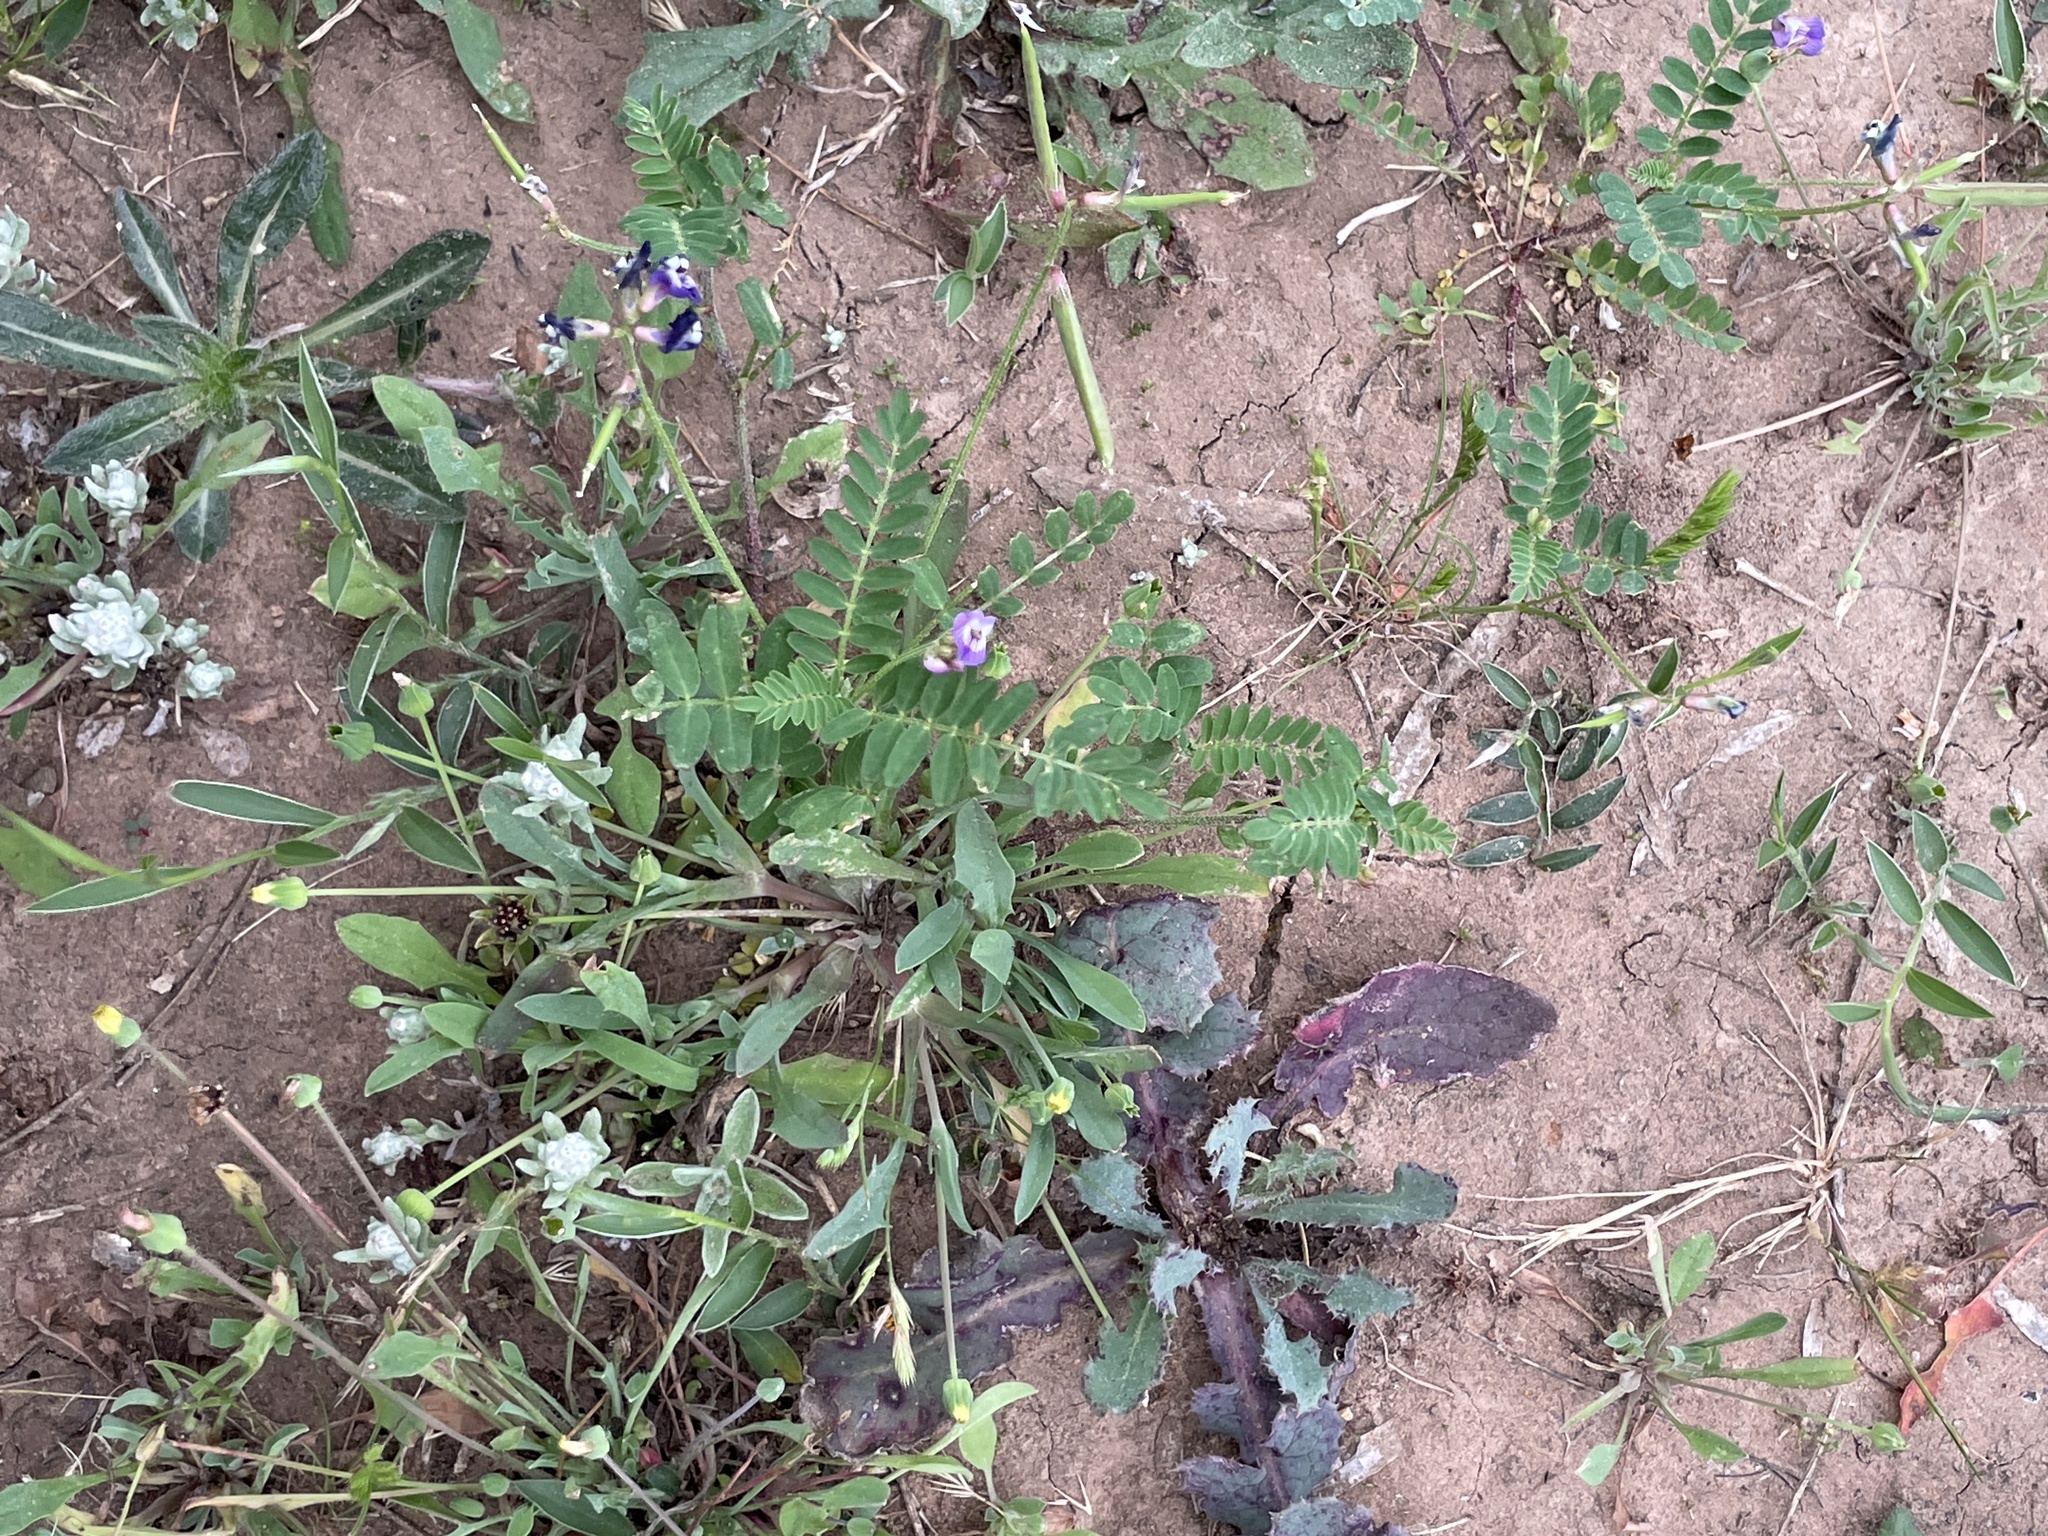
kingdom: Plantae
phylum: Tracheophyta
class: Magnoliopsida
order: Fabales
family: Fabaceae
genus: Astragalus
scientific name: Astragalus leptocarpus
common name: Bodkin milk-vetch
